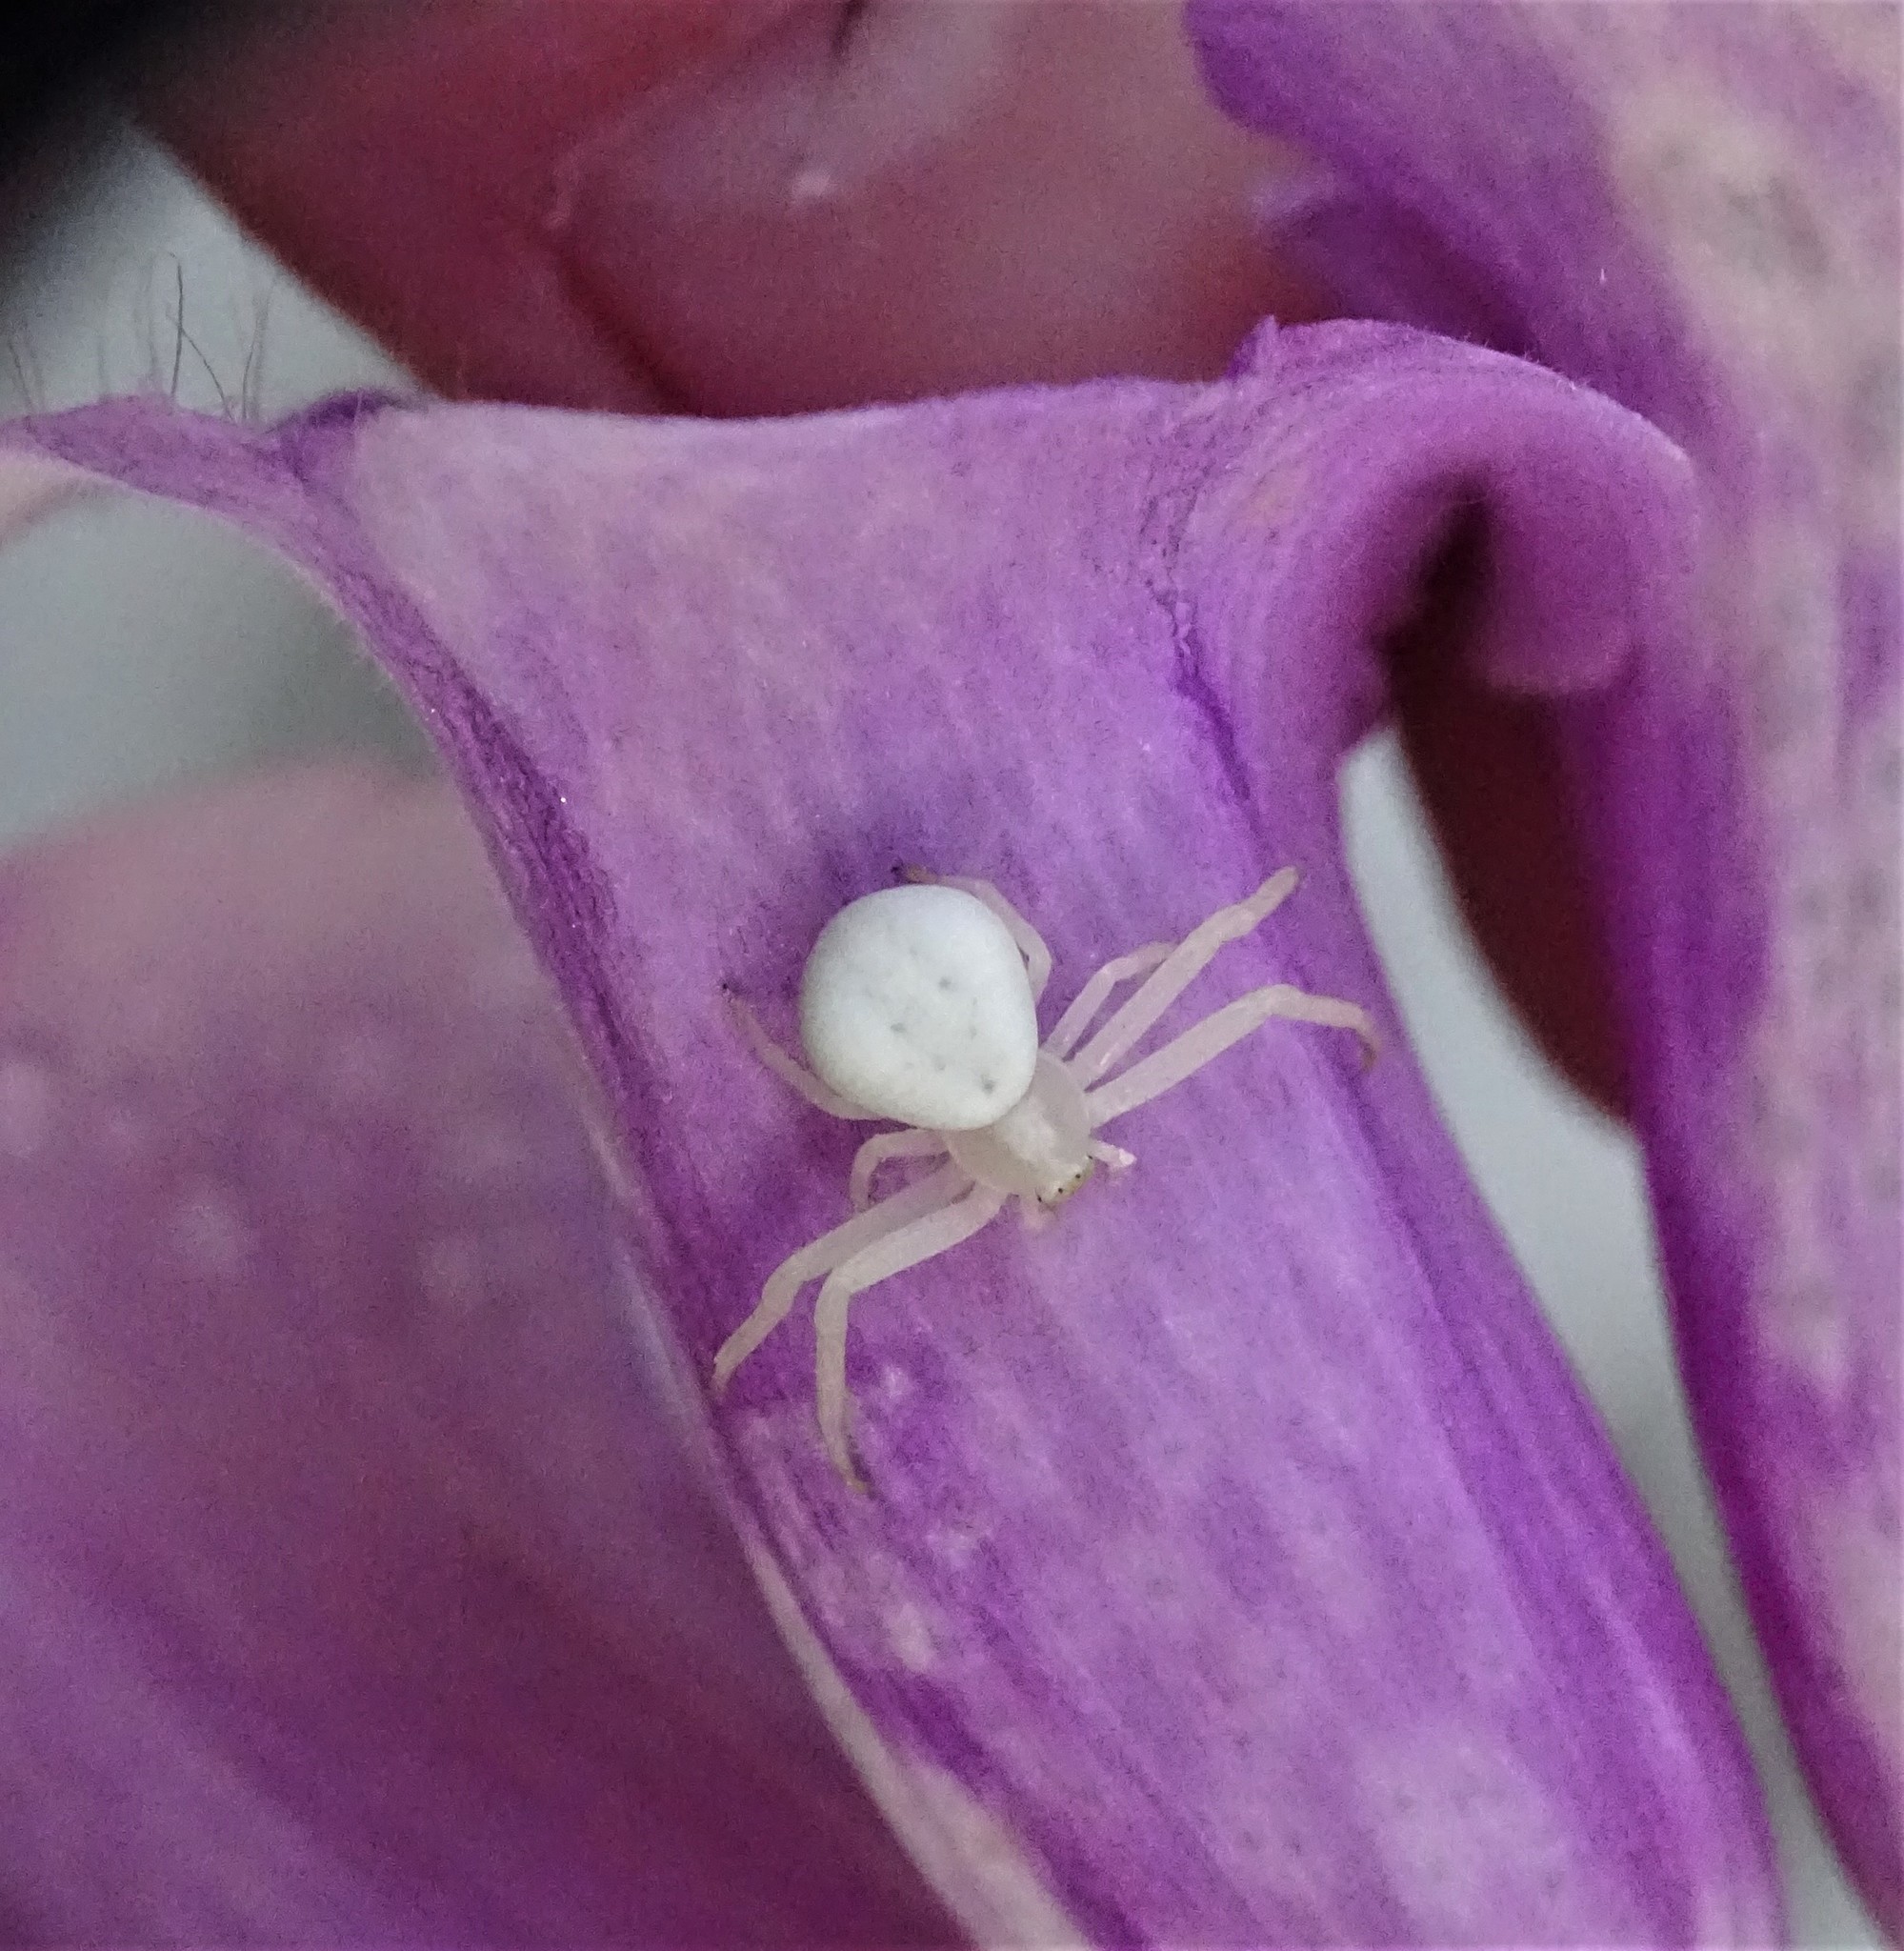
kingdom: Animalia
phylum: Arthropoda
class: Arachnida
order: Araneae
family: Thomisidae
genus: Misumena
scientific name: Misumena vatia
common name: Goldenrod crab spider
